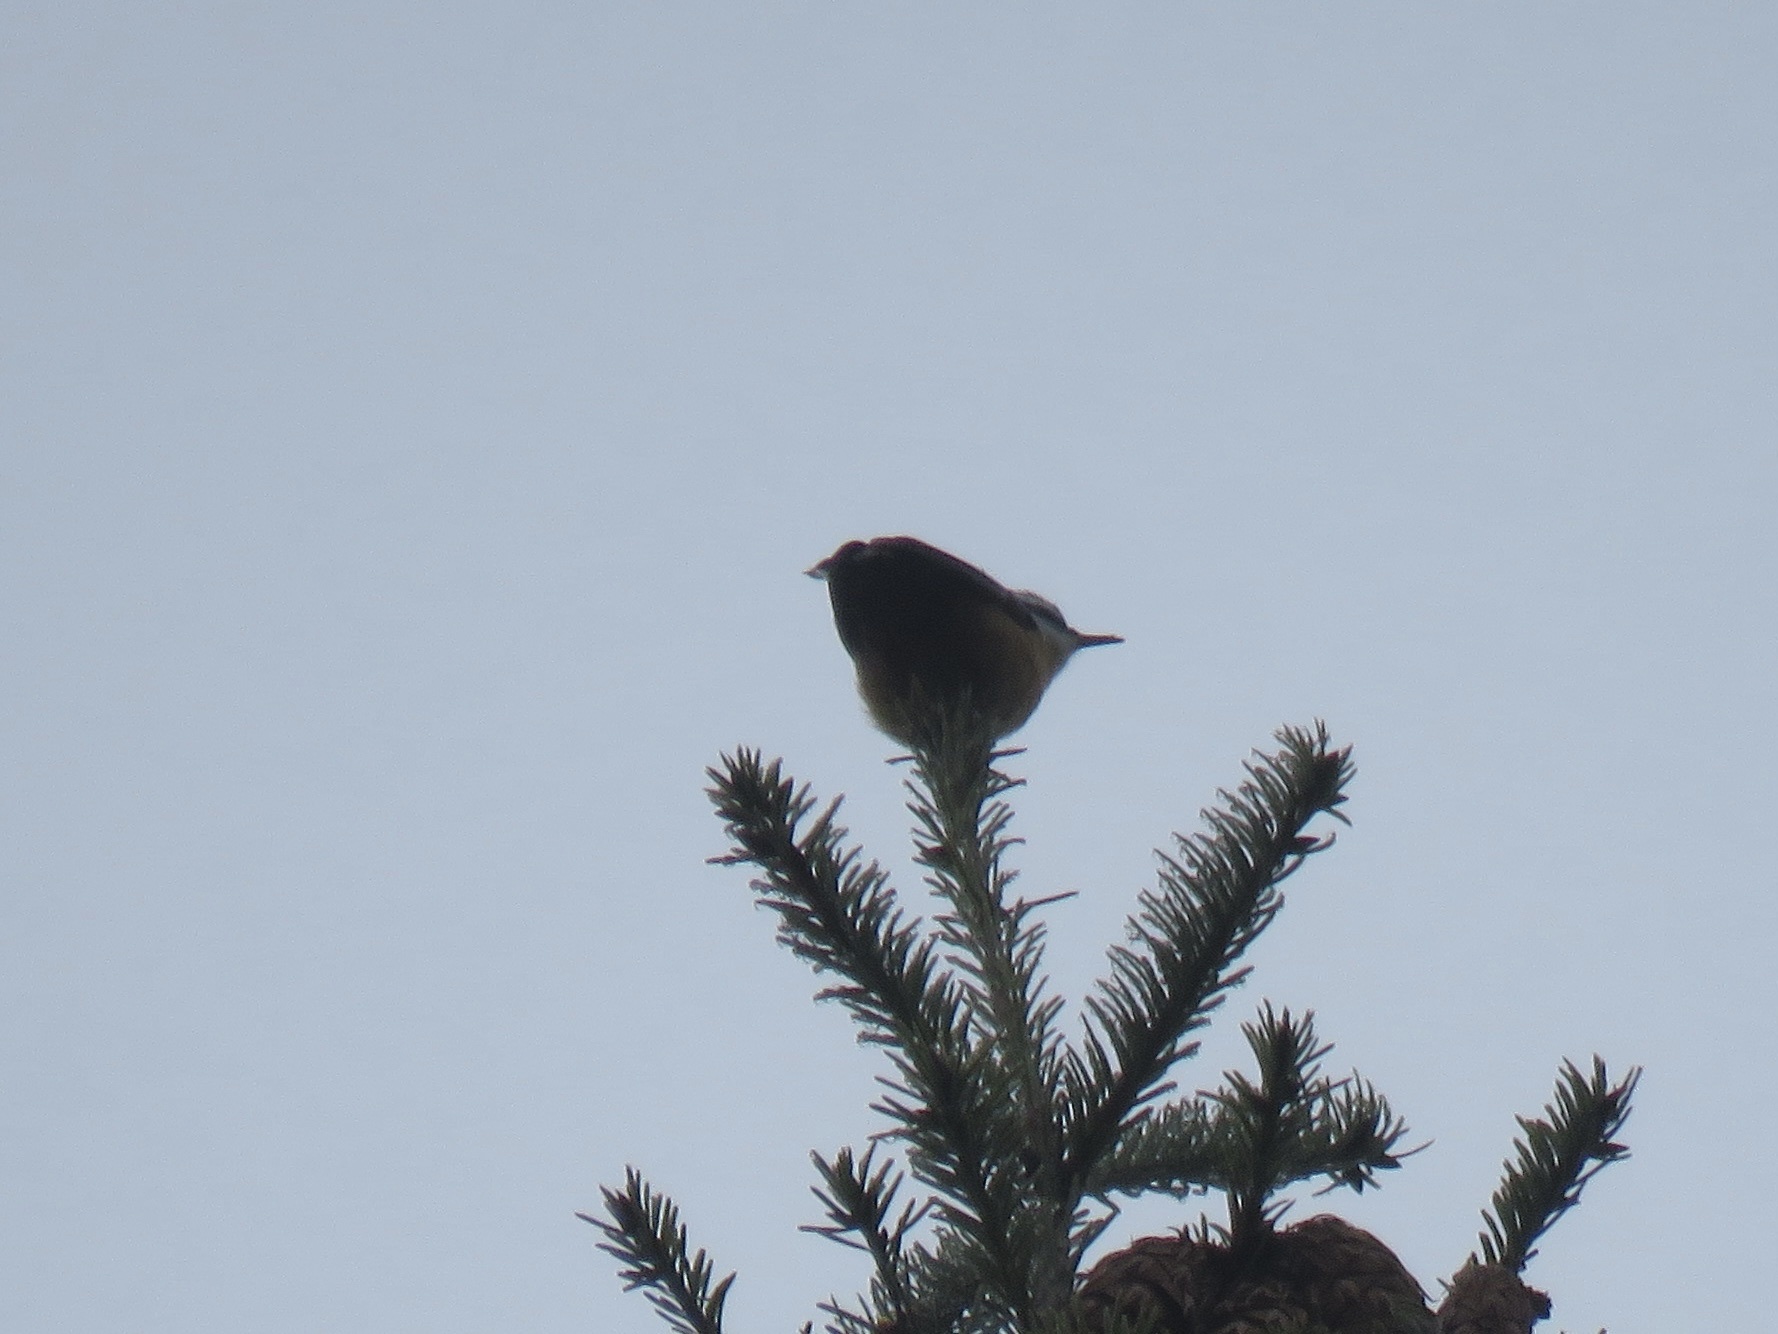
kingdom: Animalia
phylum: Chordata
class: Aves
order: Passeriformes
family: Sittidae
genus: Sitta
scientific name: Sitta canadensis
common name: Red-breasted nuthatch
